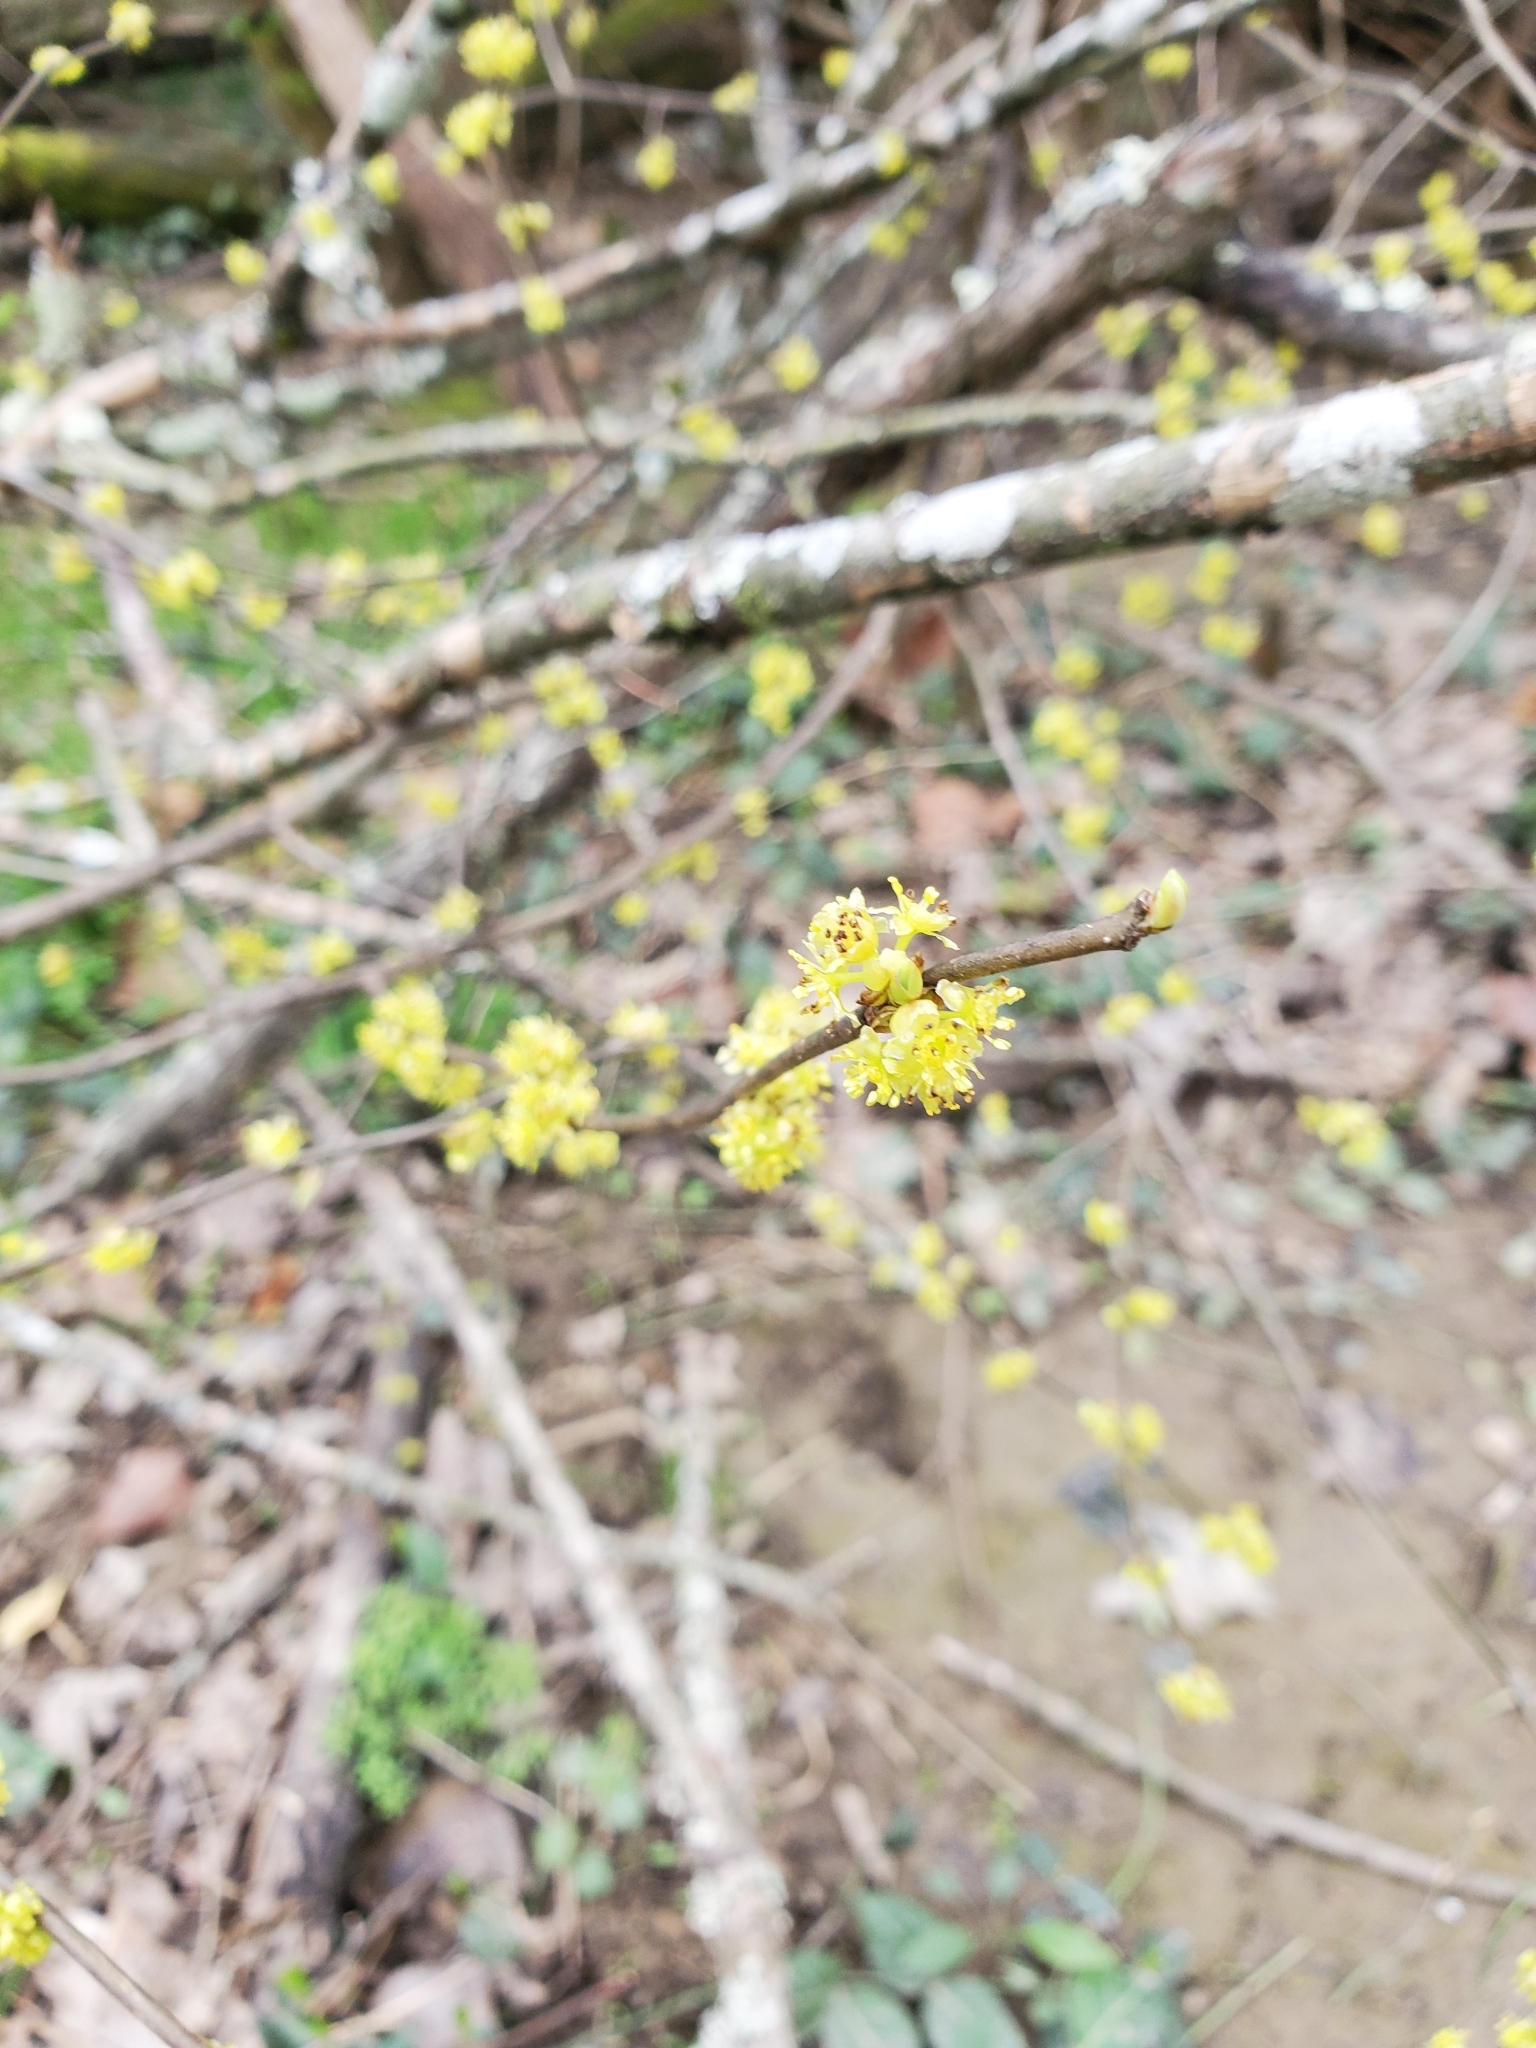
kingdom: Plantae
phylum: Tracheophyta
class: Magnoliopsida
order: Laurales
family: Lauraceae
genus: Lindera
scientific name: Lindera benzoin
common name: Spicebush
